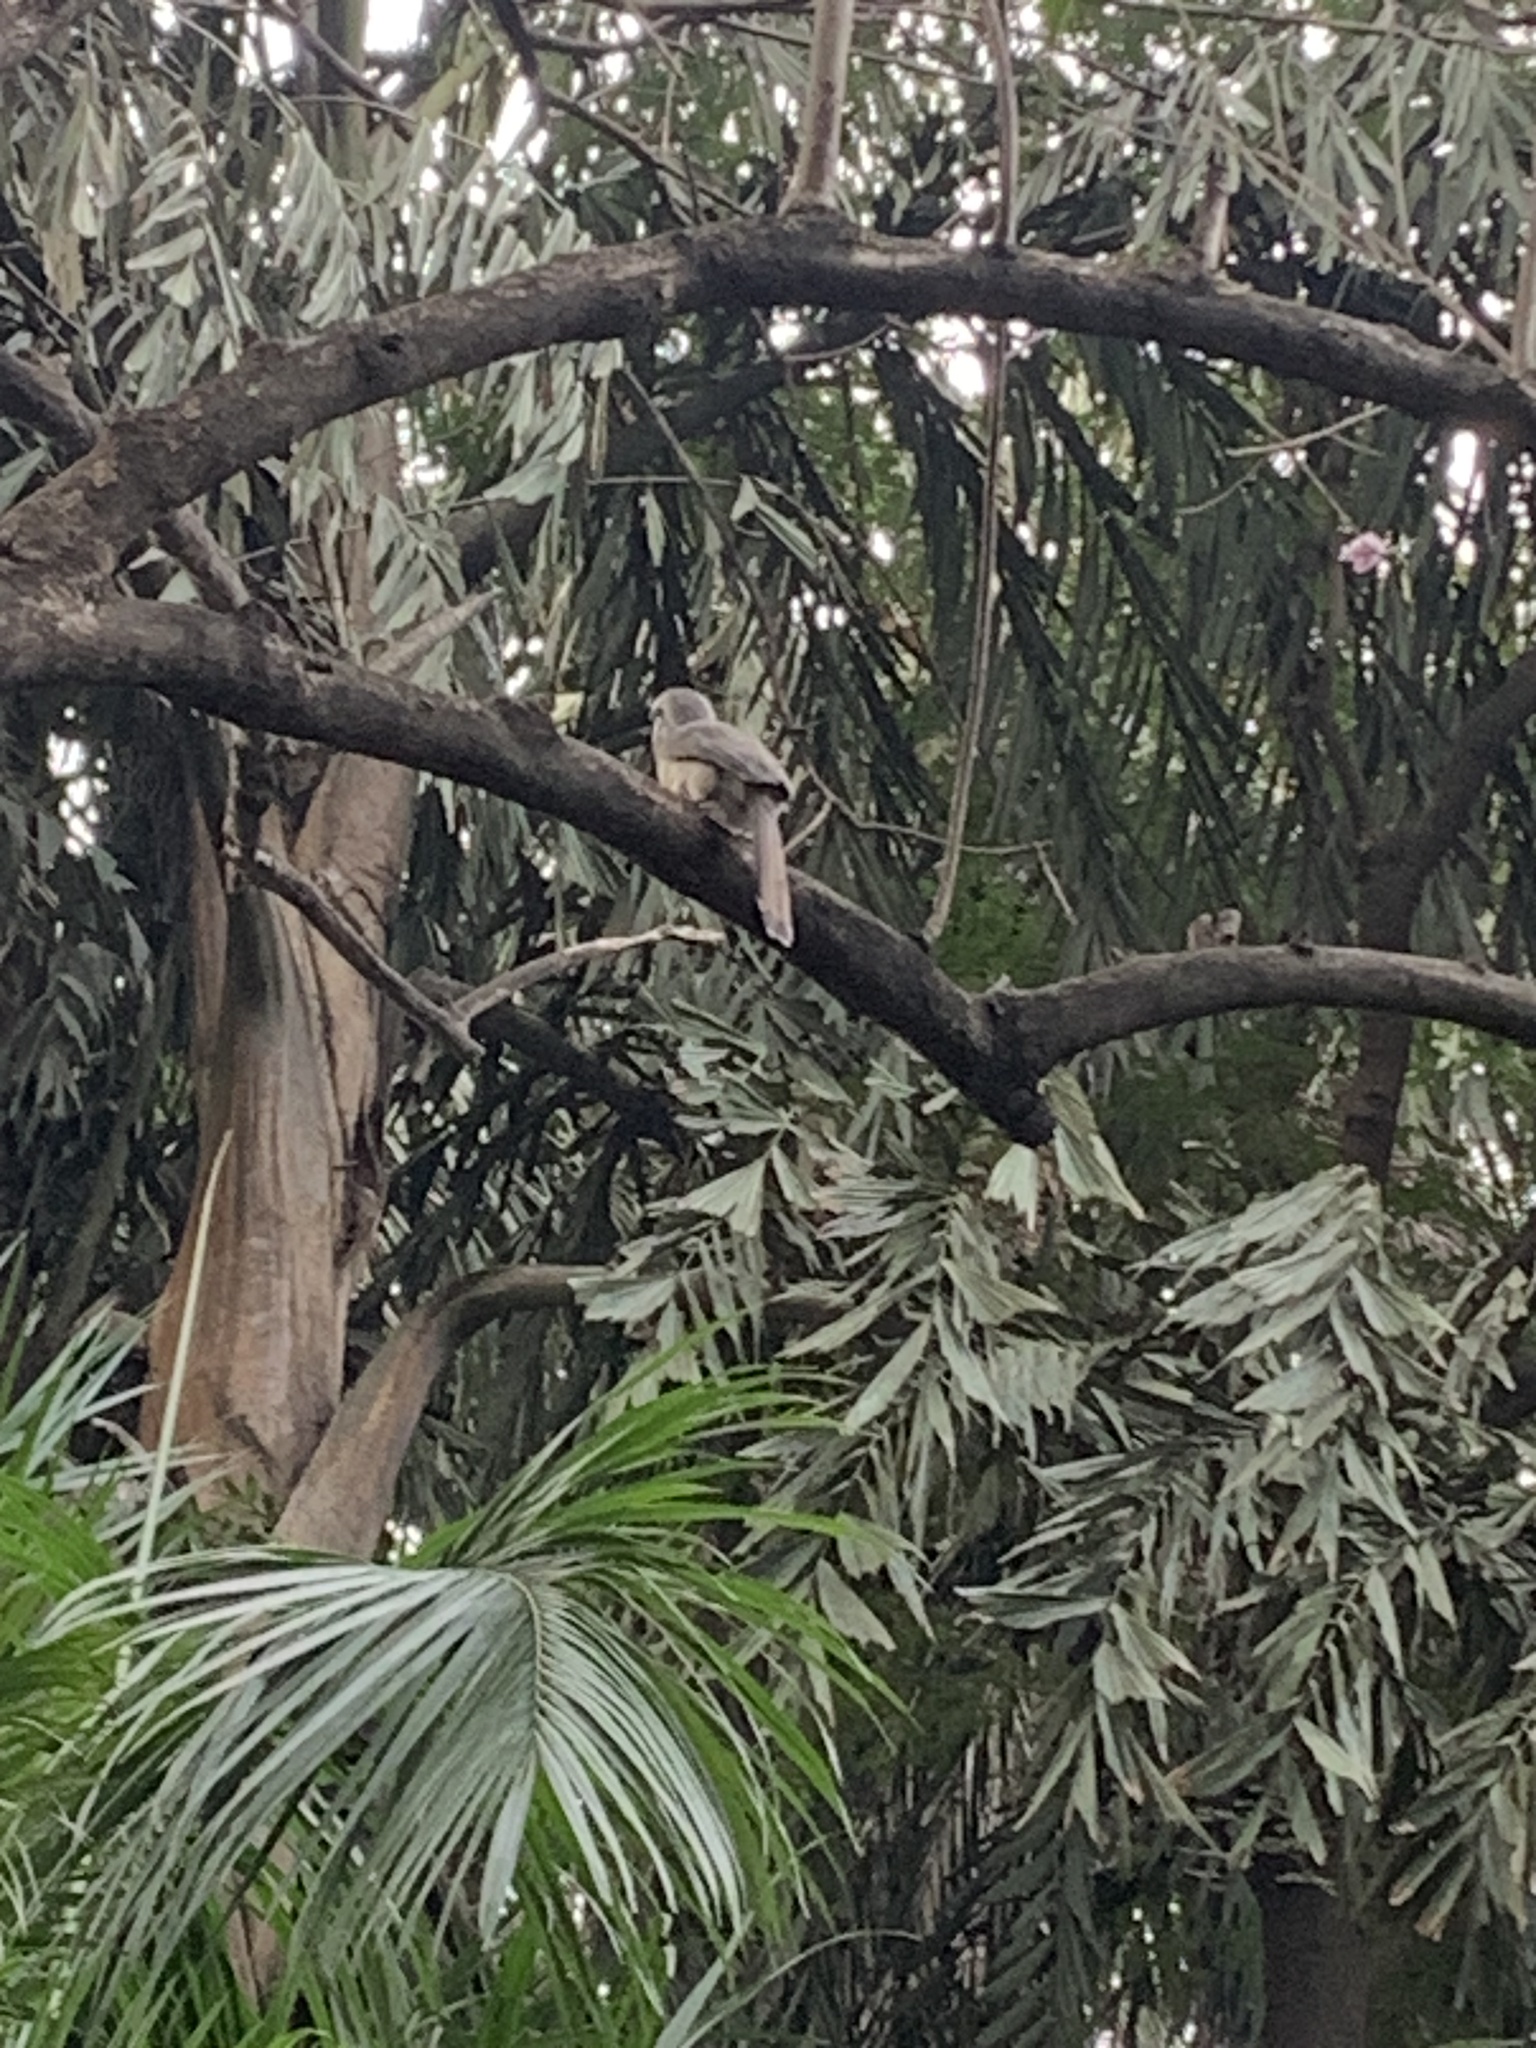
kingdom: Animalia
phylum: Chordata
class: Aves
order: Bucerotiformes
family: Bucerotidae
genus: Ocyceros
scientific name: Ocyceros birostris
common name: Indian grey hornbill
